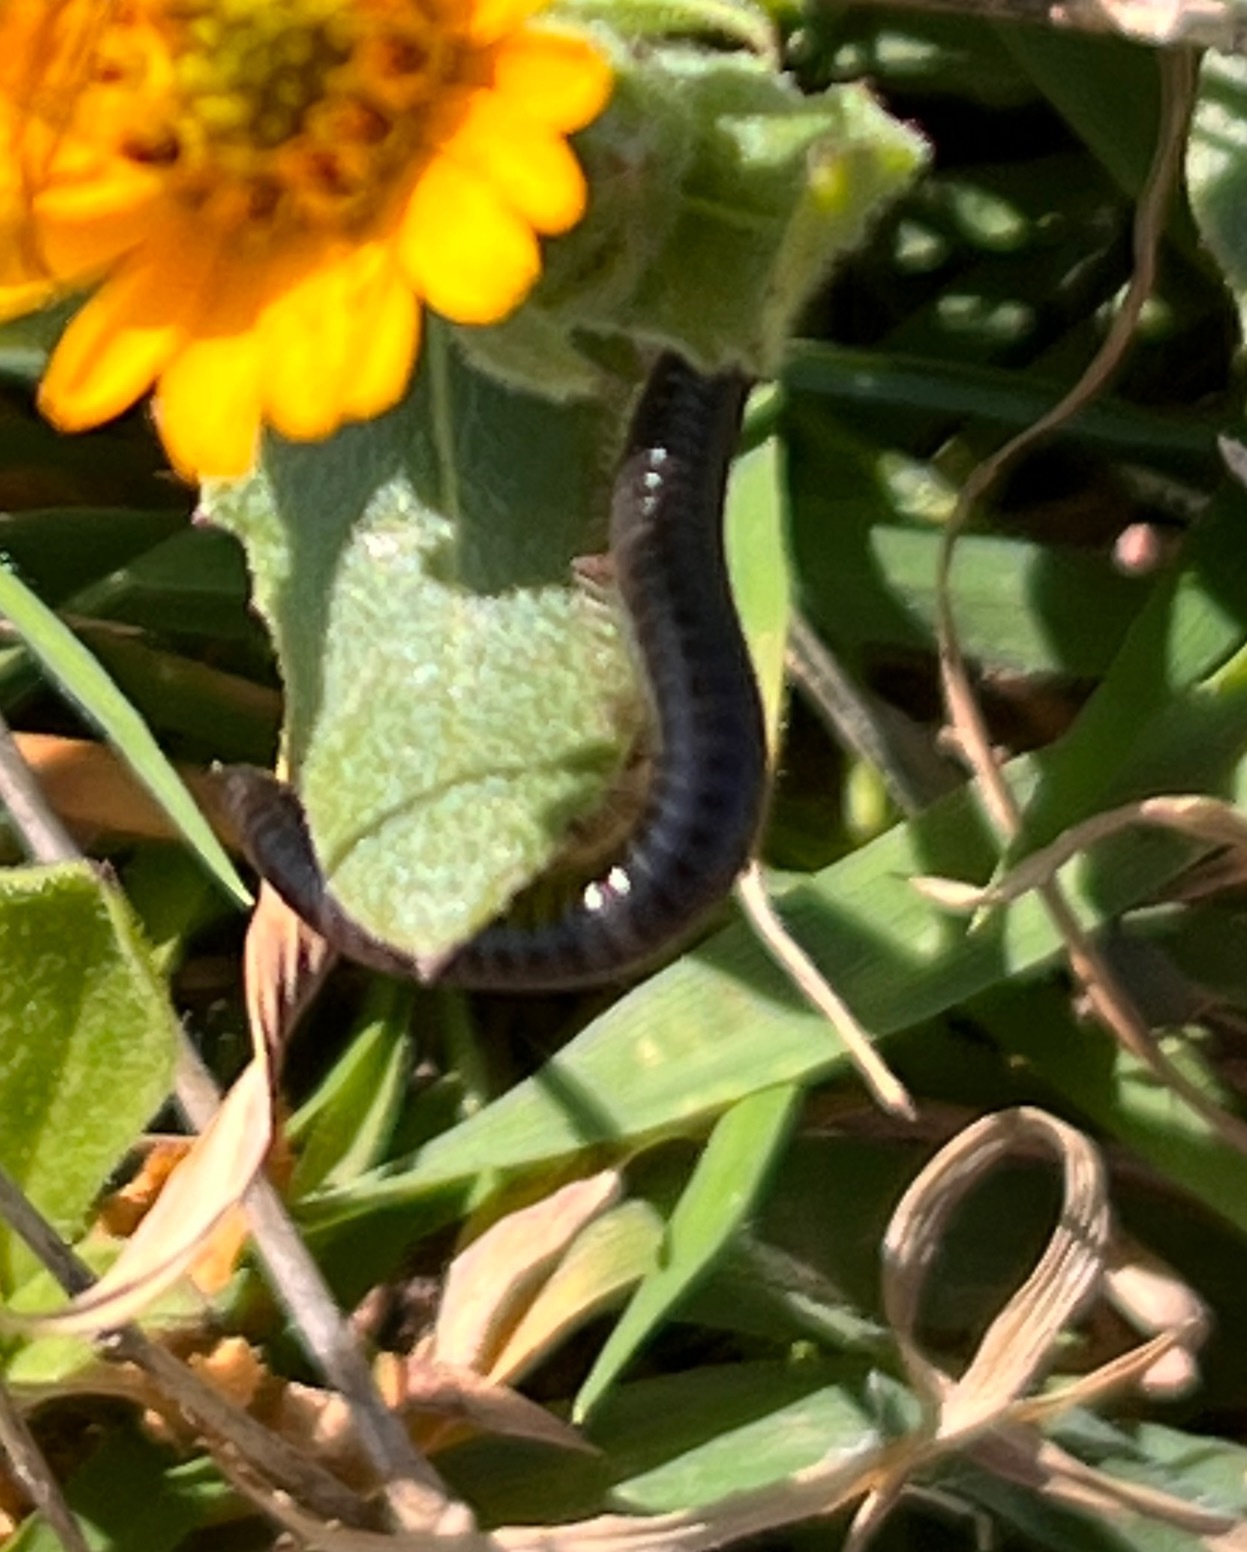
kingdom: Animalia
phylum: Arthropoda
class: Diplopoda
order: Julida
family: Julidae
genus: Ommatoiulus
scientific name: Ommatoiulus moreleti
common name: Portuguese millipede
